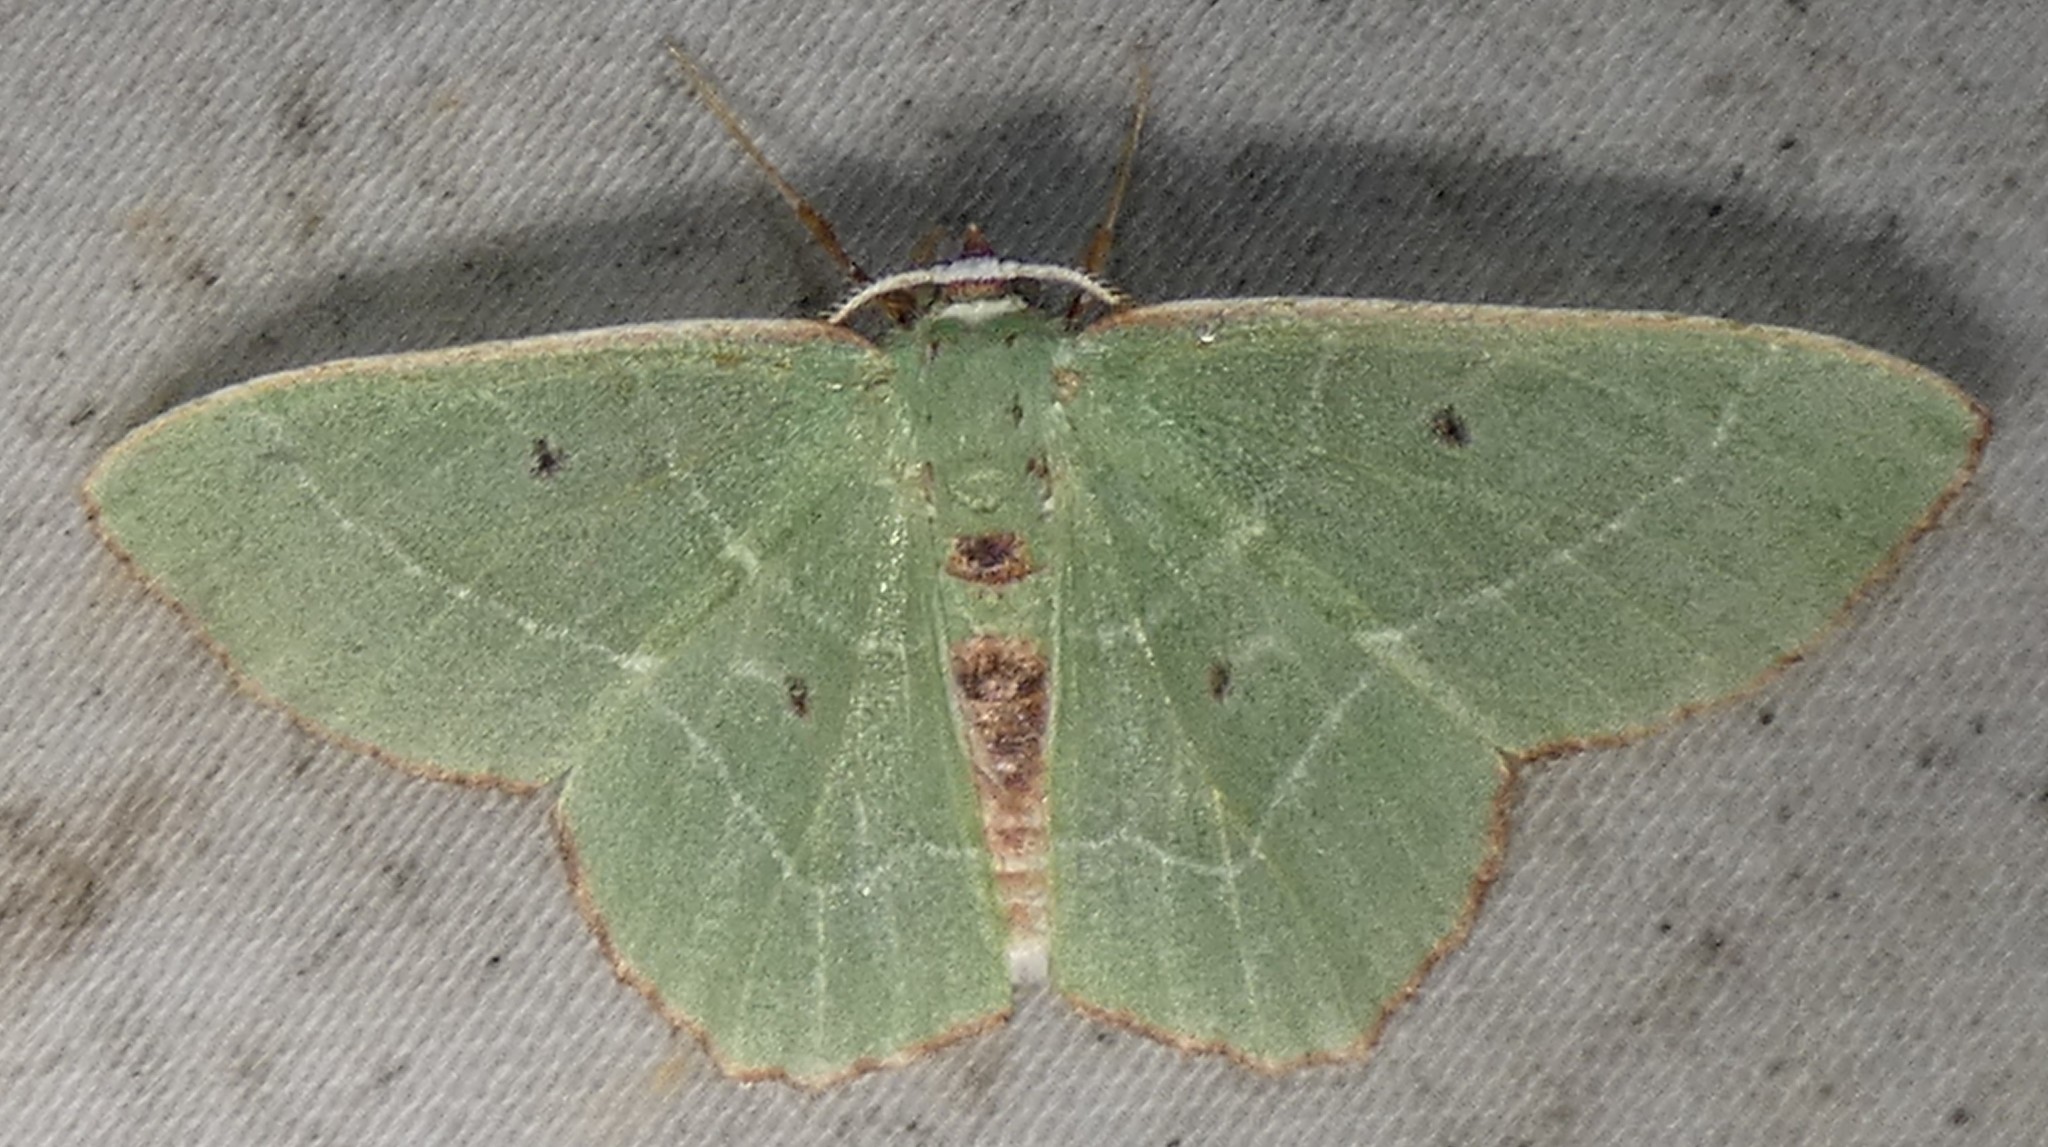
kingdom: Animalia
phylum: Arthropoda
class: Insecta
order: Lepidoptera
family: Geometridae
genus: Nemoria
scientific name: Nemoria saturiba
